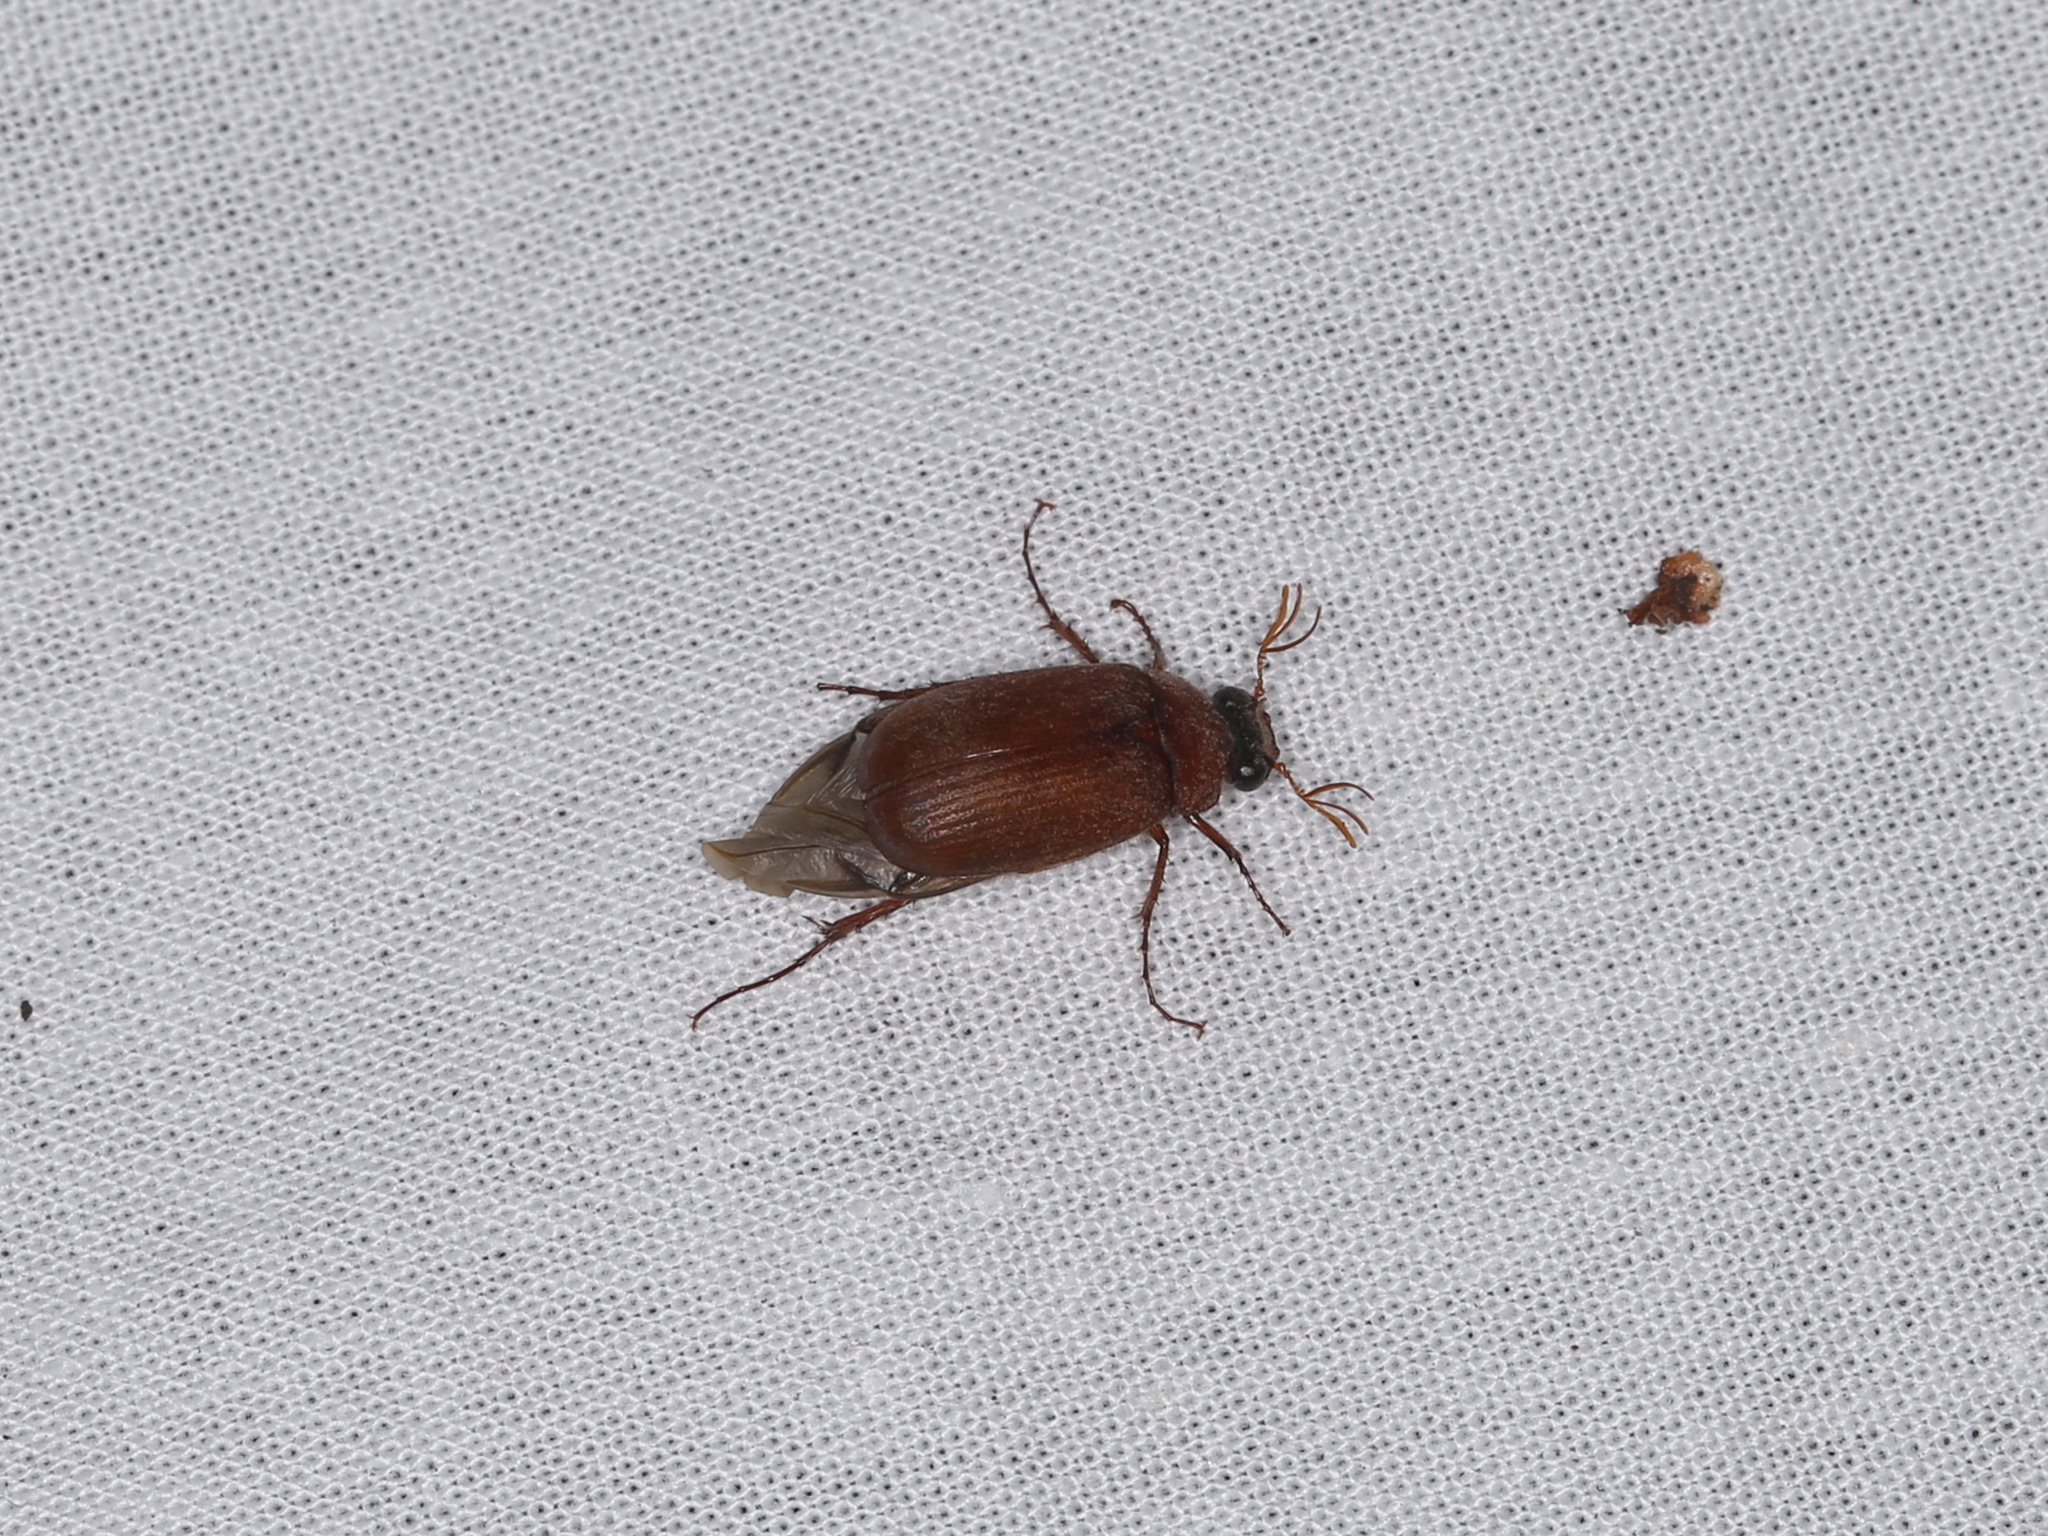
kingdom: Animalia
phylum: Arthropoda
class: Insecta
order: Coleoptera
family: Scarabaeidae
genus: Serica
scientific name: Serica brunnea
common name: Brown chafer
